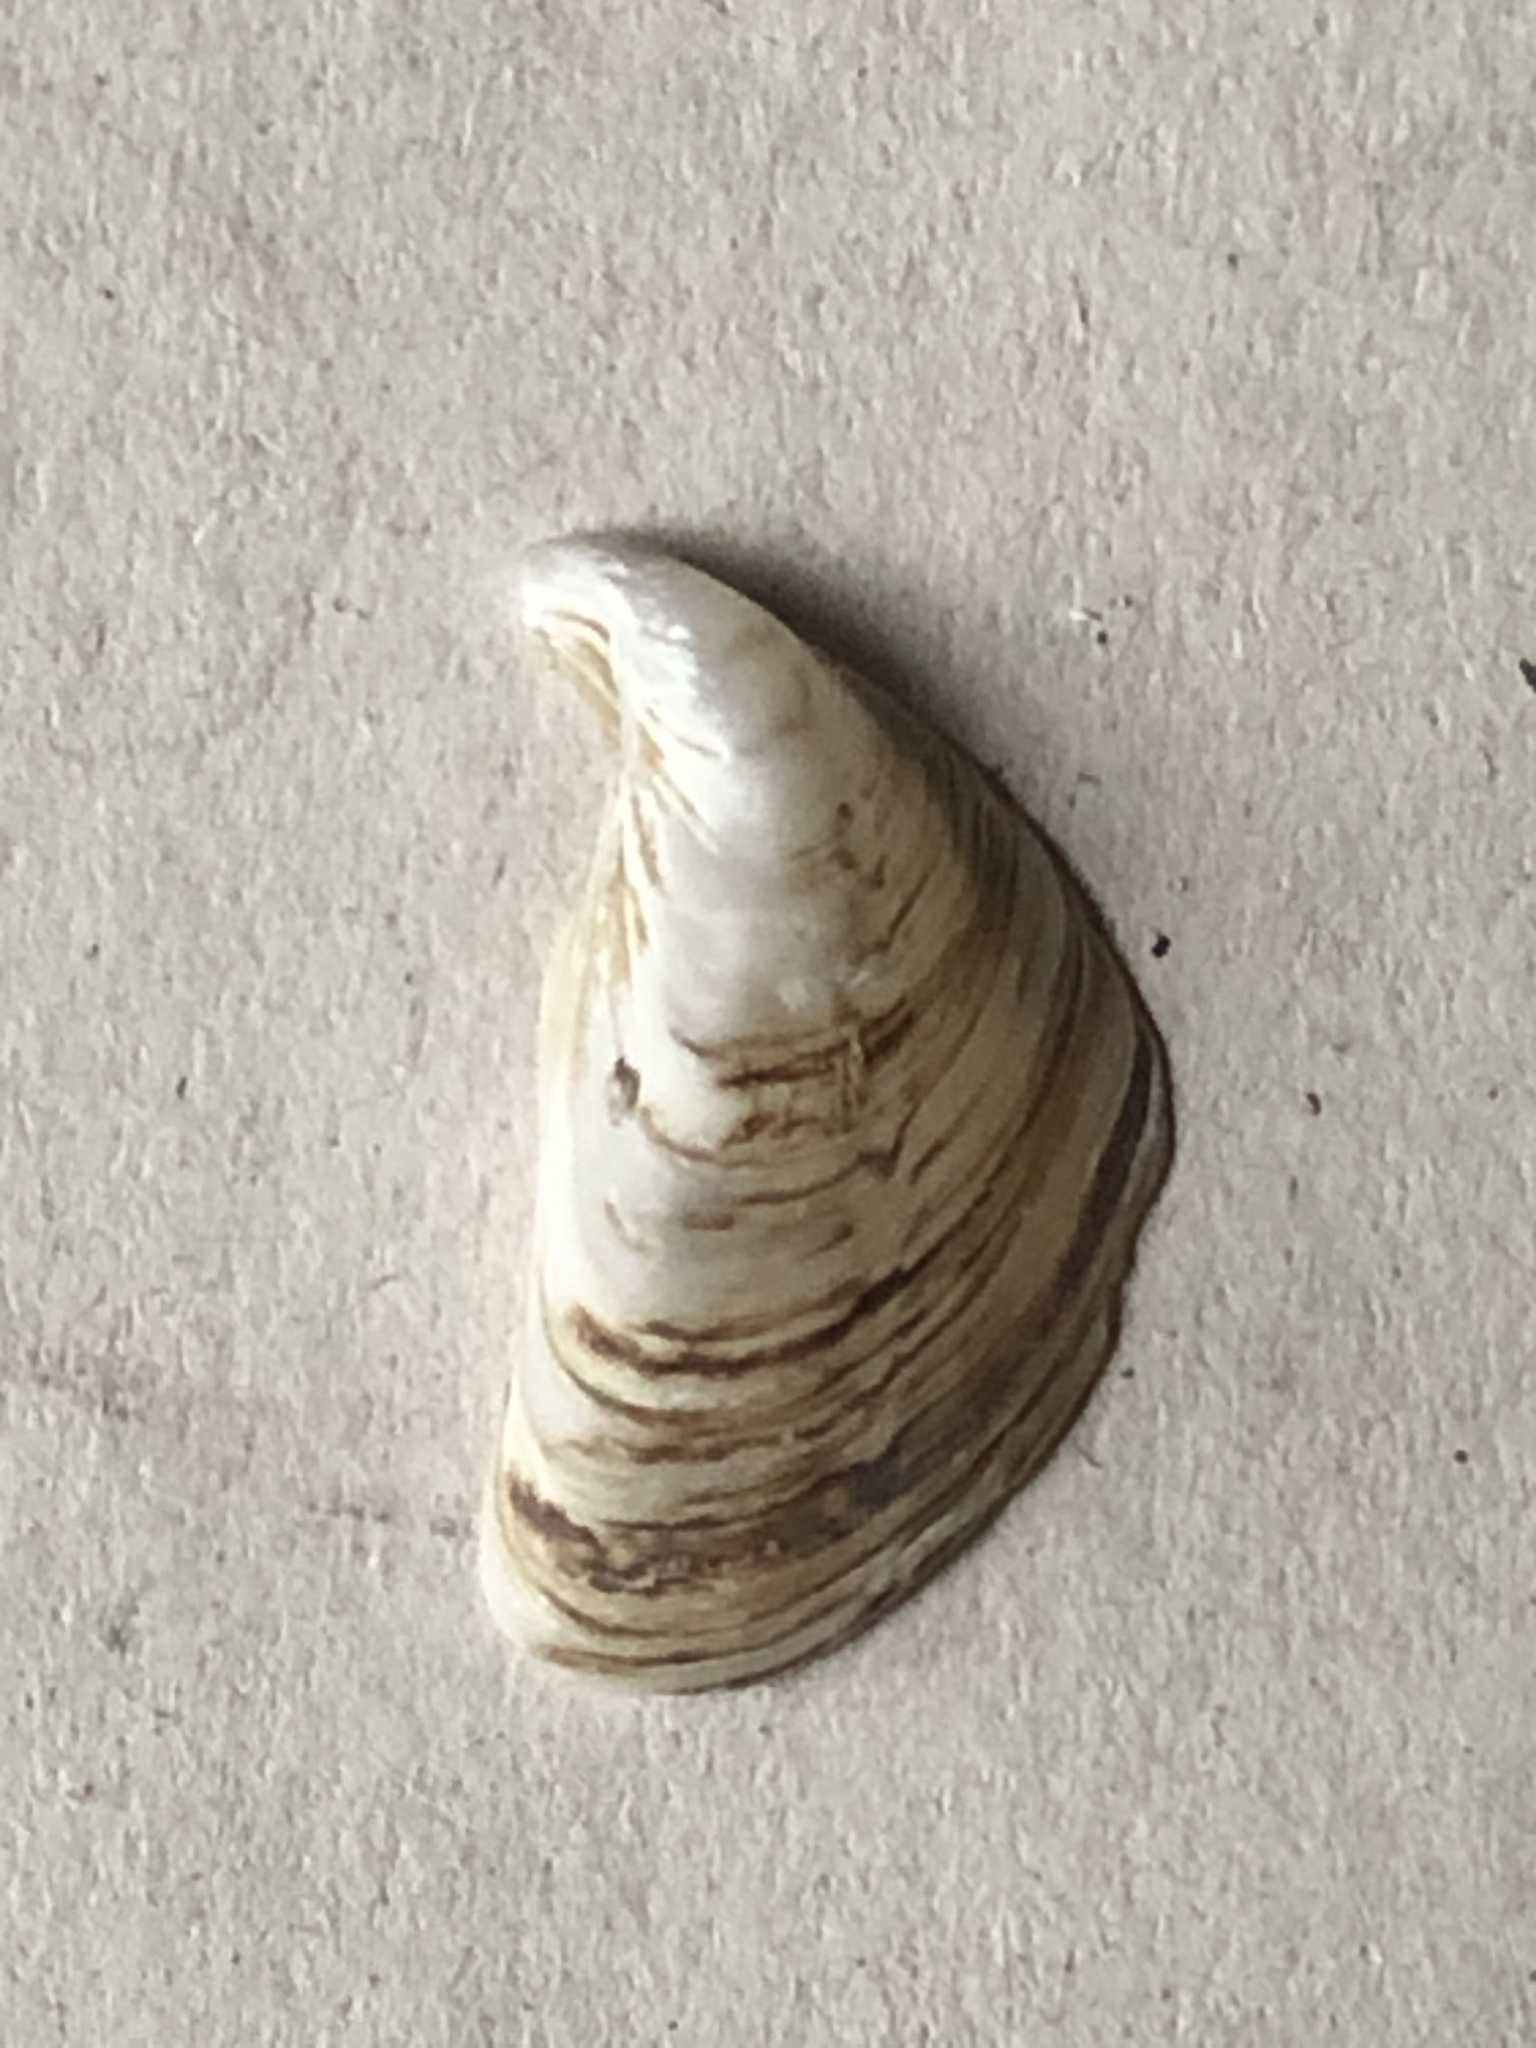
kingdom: Animalia
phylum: Mollusca
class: Bivalvia
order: Myida
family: Dreissenidae
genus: Dreissena
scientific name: Dreissena bugensis
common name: Quagga mussel
